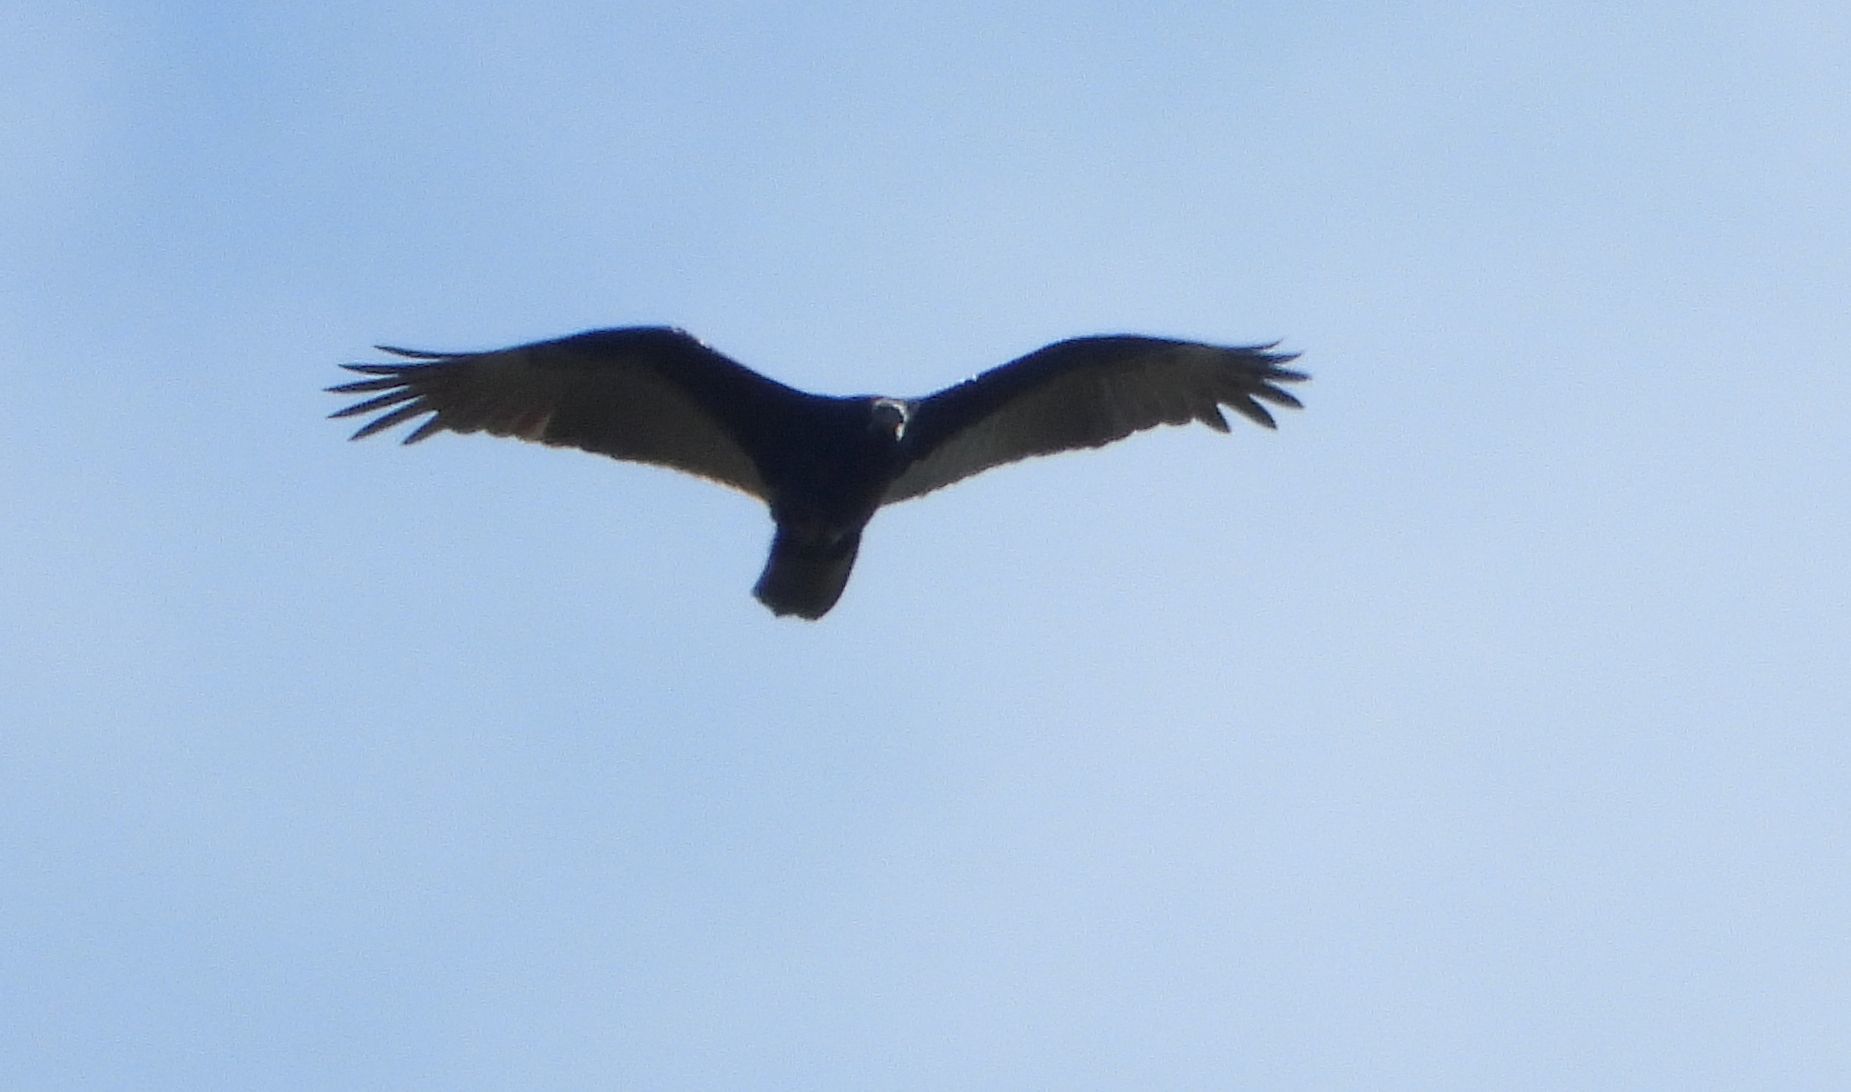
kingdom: Animalia
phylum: Chordata
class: Aves
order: Accipitriformes
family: Cathartidae
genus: Cathartes
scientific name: Cathartes aura
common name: Turkey vulture
